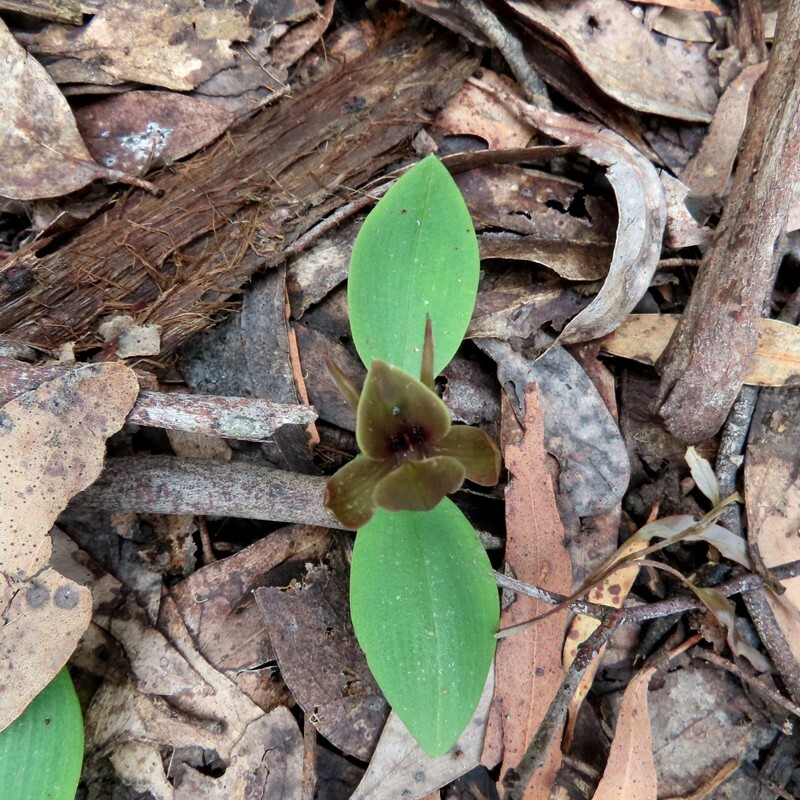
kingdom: Plantae
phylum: Tracheophyta
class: Liliopsida
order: Asparagales
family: Orchidaceae
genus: Chiloglottis
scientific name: Chiloglottis valida
